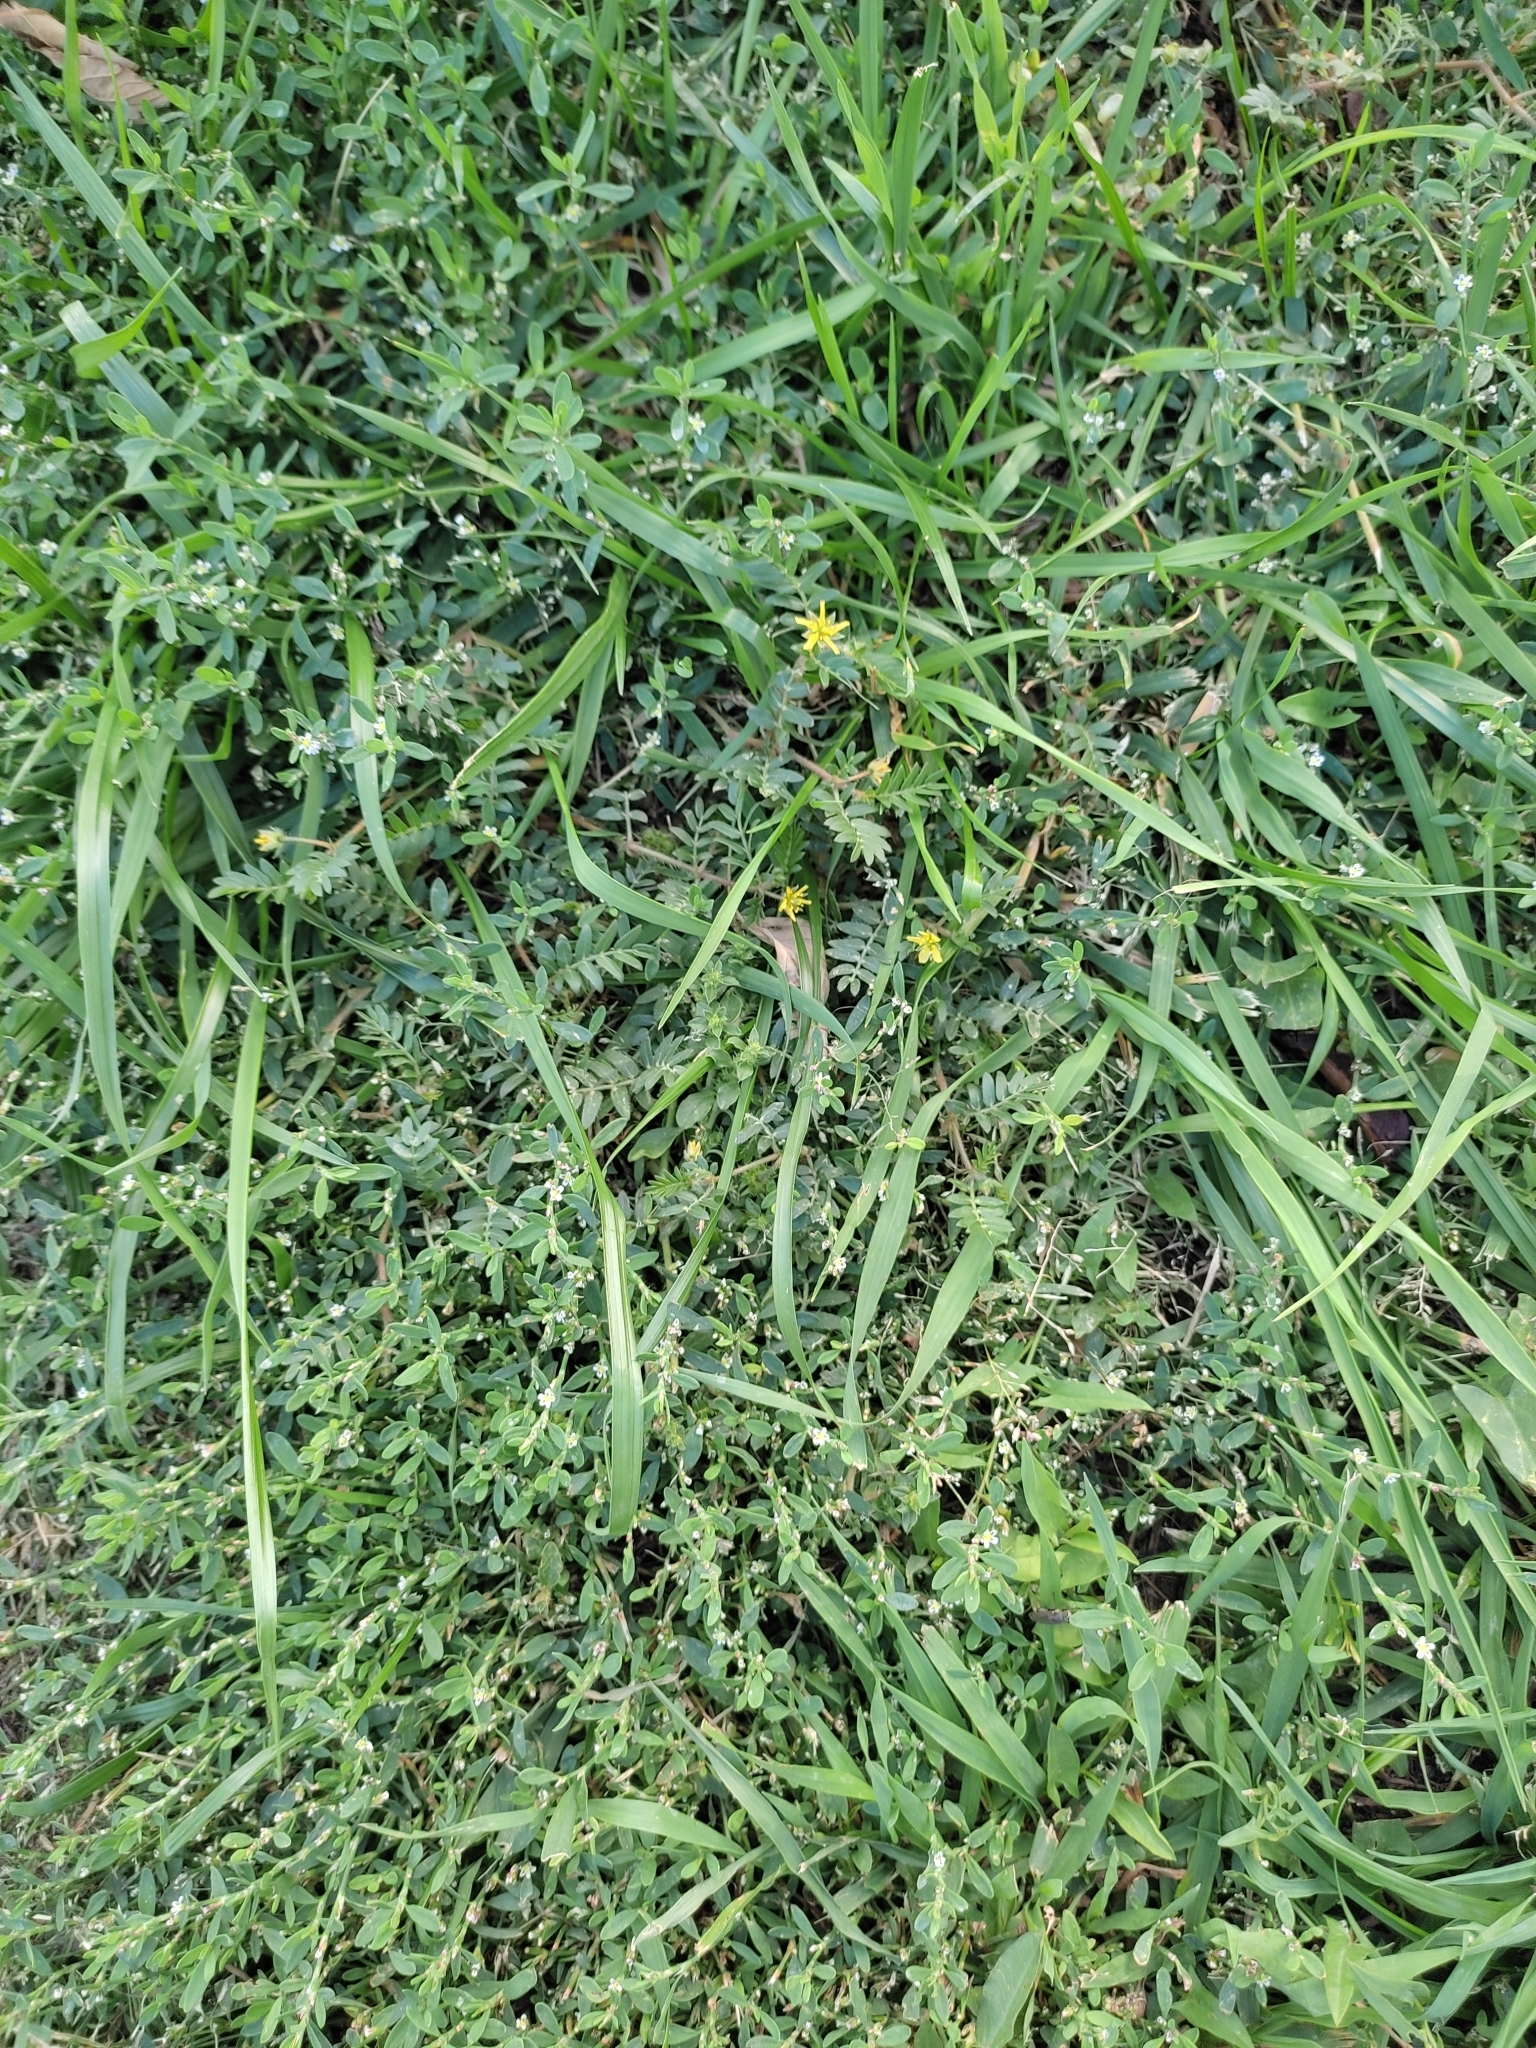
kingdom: Plantae
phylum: Tracheophyta
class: Magnoliopsida
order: Zygophyllales
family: Zygophyllaceae
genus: Tribulus
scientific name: Tribulus terrestris
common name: Puncturevine
